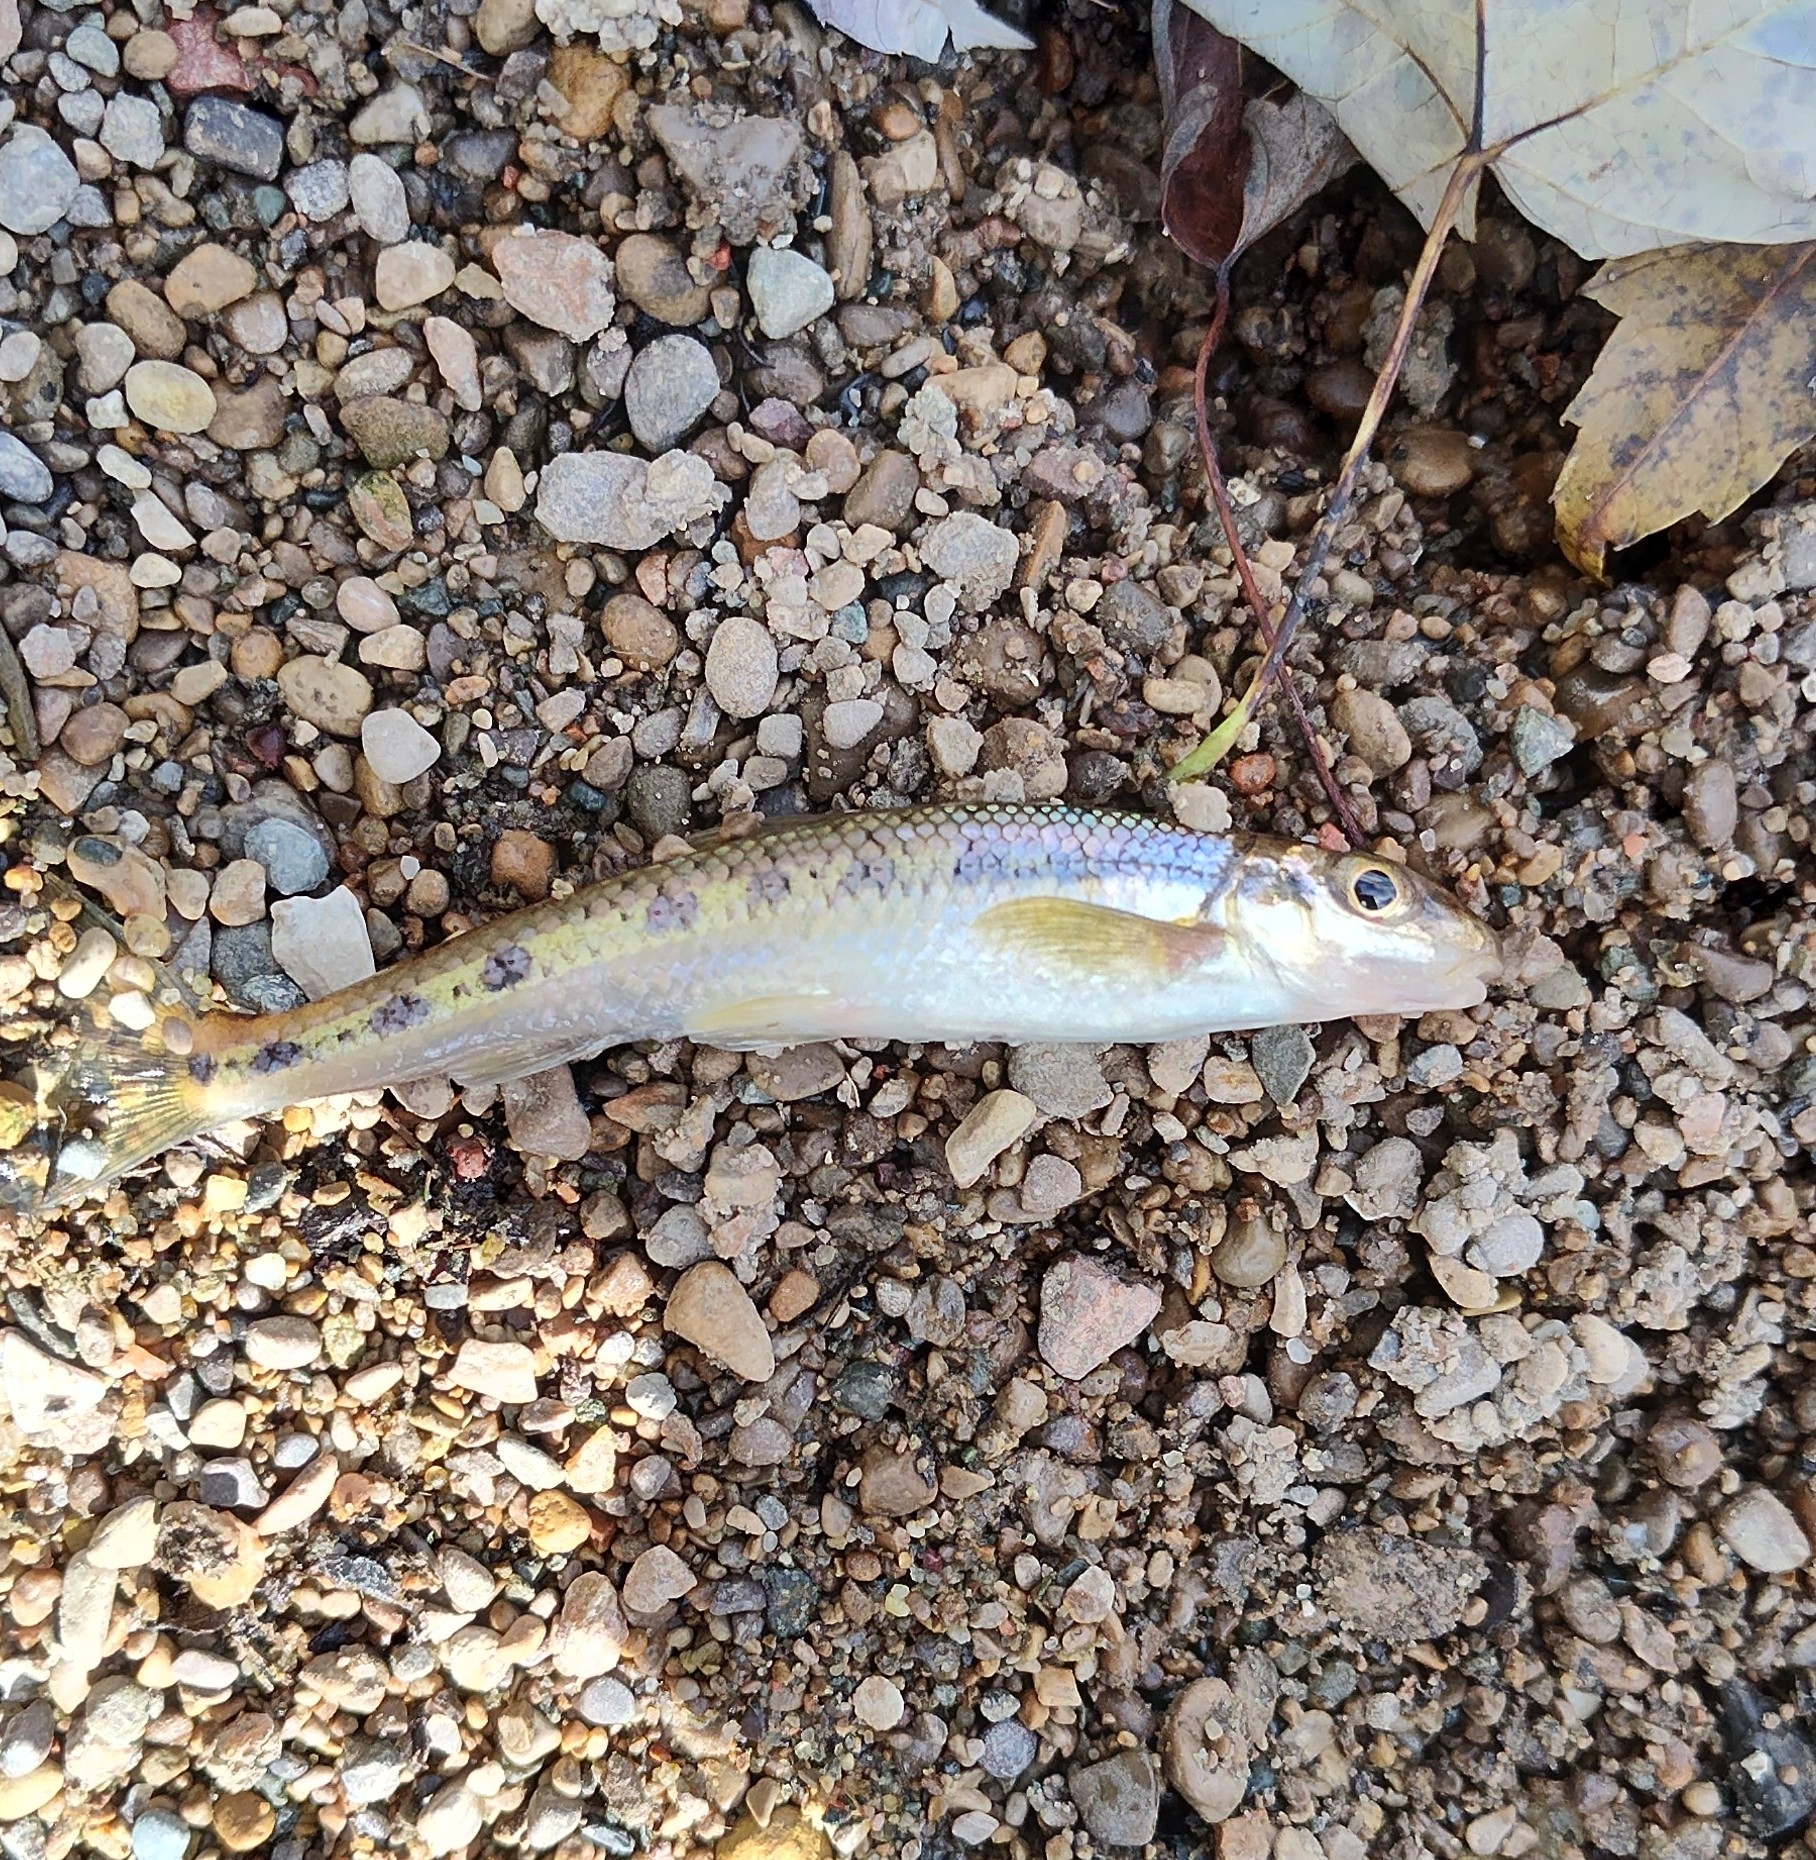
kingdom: Animalia
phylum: Chordata
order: Cypriniformes
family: Cyprinidae
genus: Erimystax
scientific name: Erimystax dissimilis
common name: Streamline chub
